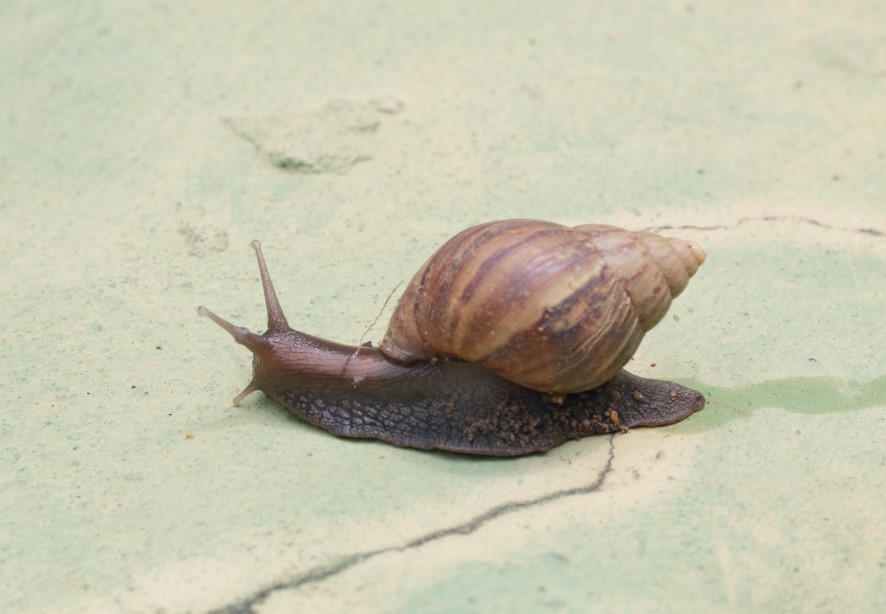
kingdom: Animalia
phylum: Mollusca
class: Gastropoda
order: Stylommatophora
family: Achatinidae
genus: Lissachatina
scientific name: Lissachatina fulica
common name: Giant african snail
